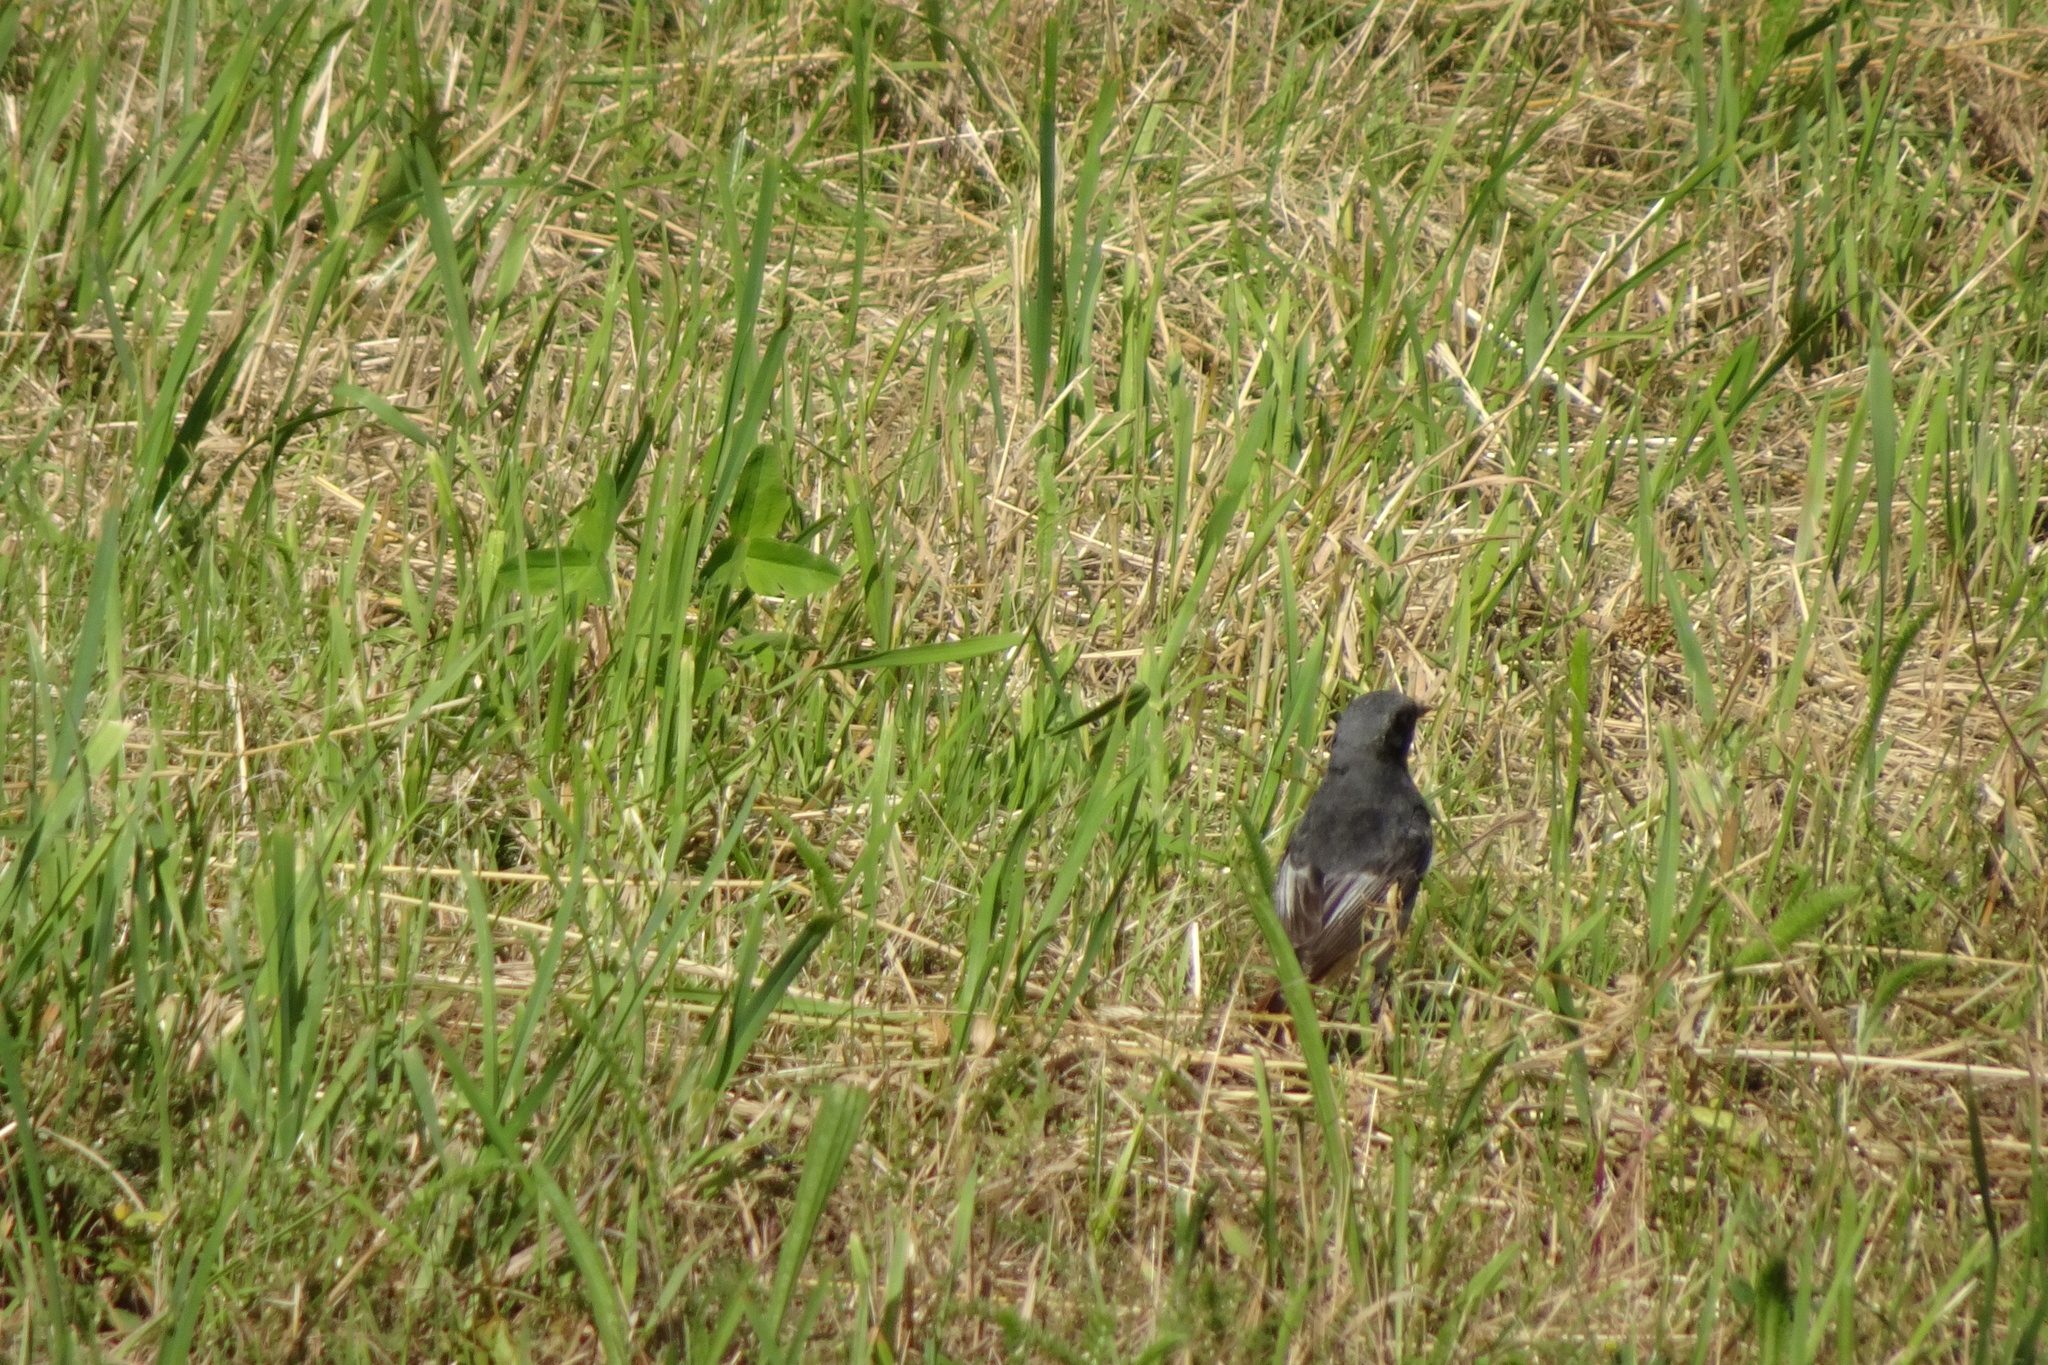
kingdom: Animalia
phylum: Chordata
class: Aves
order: Passeriformes
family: Muscicapidae
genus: Phoenicurus
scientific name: Phoenicurus ochruros
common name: Black redstart
